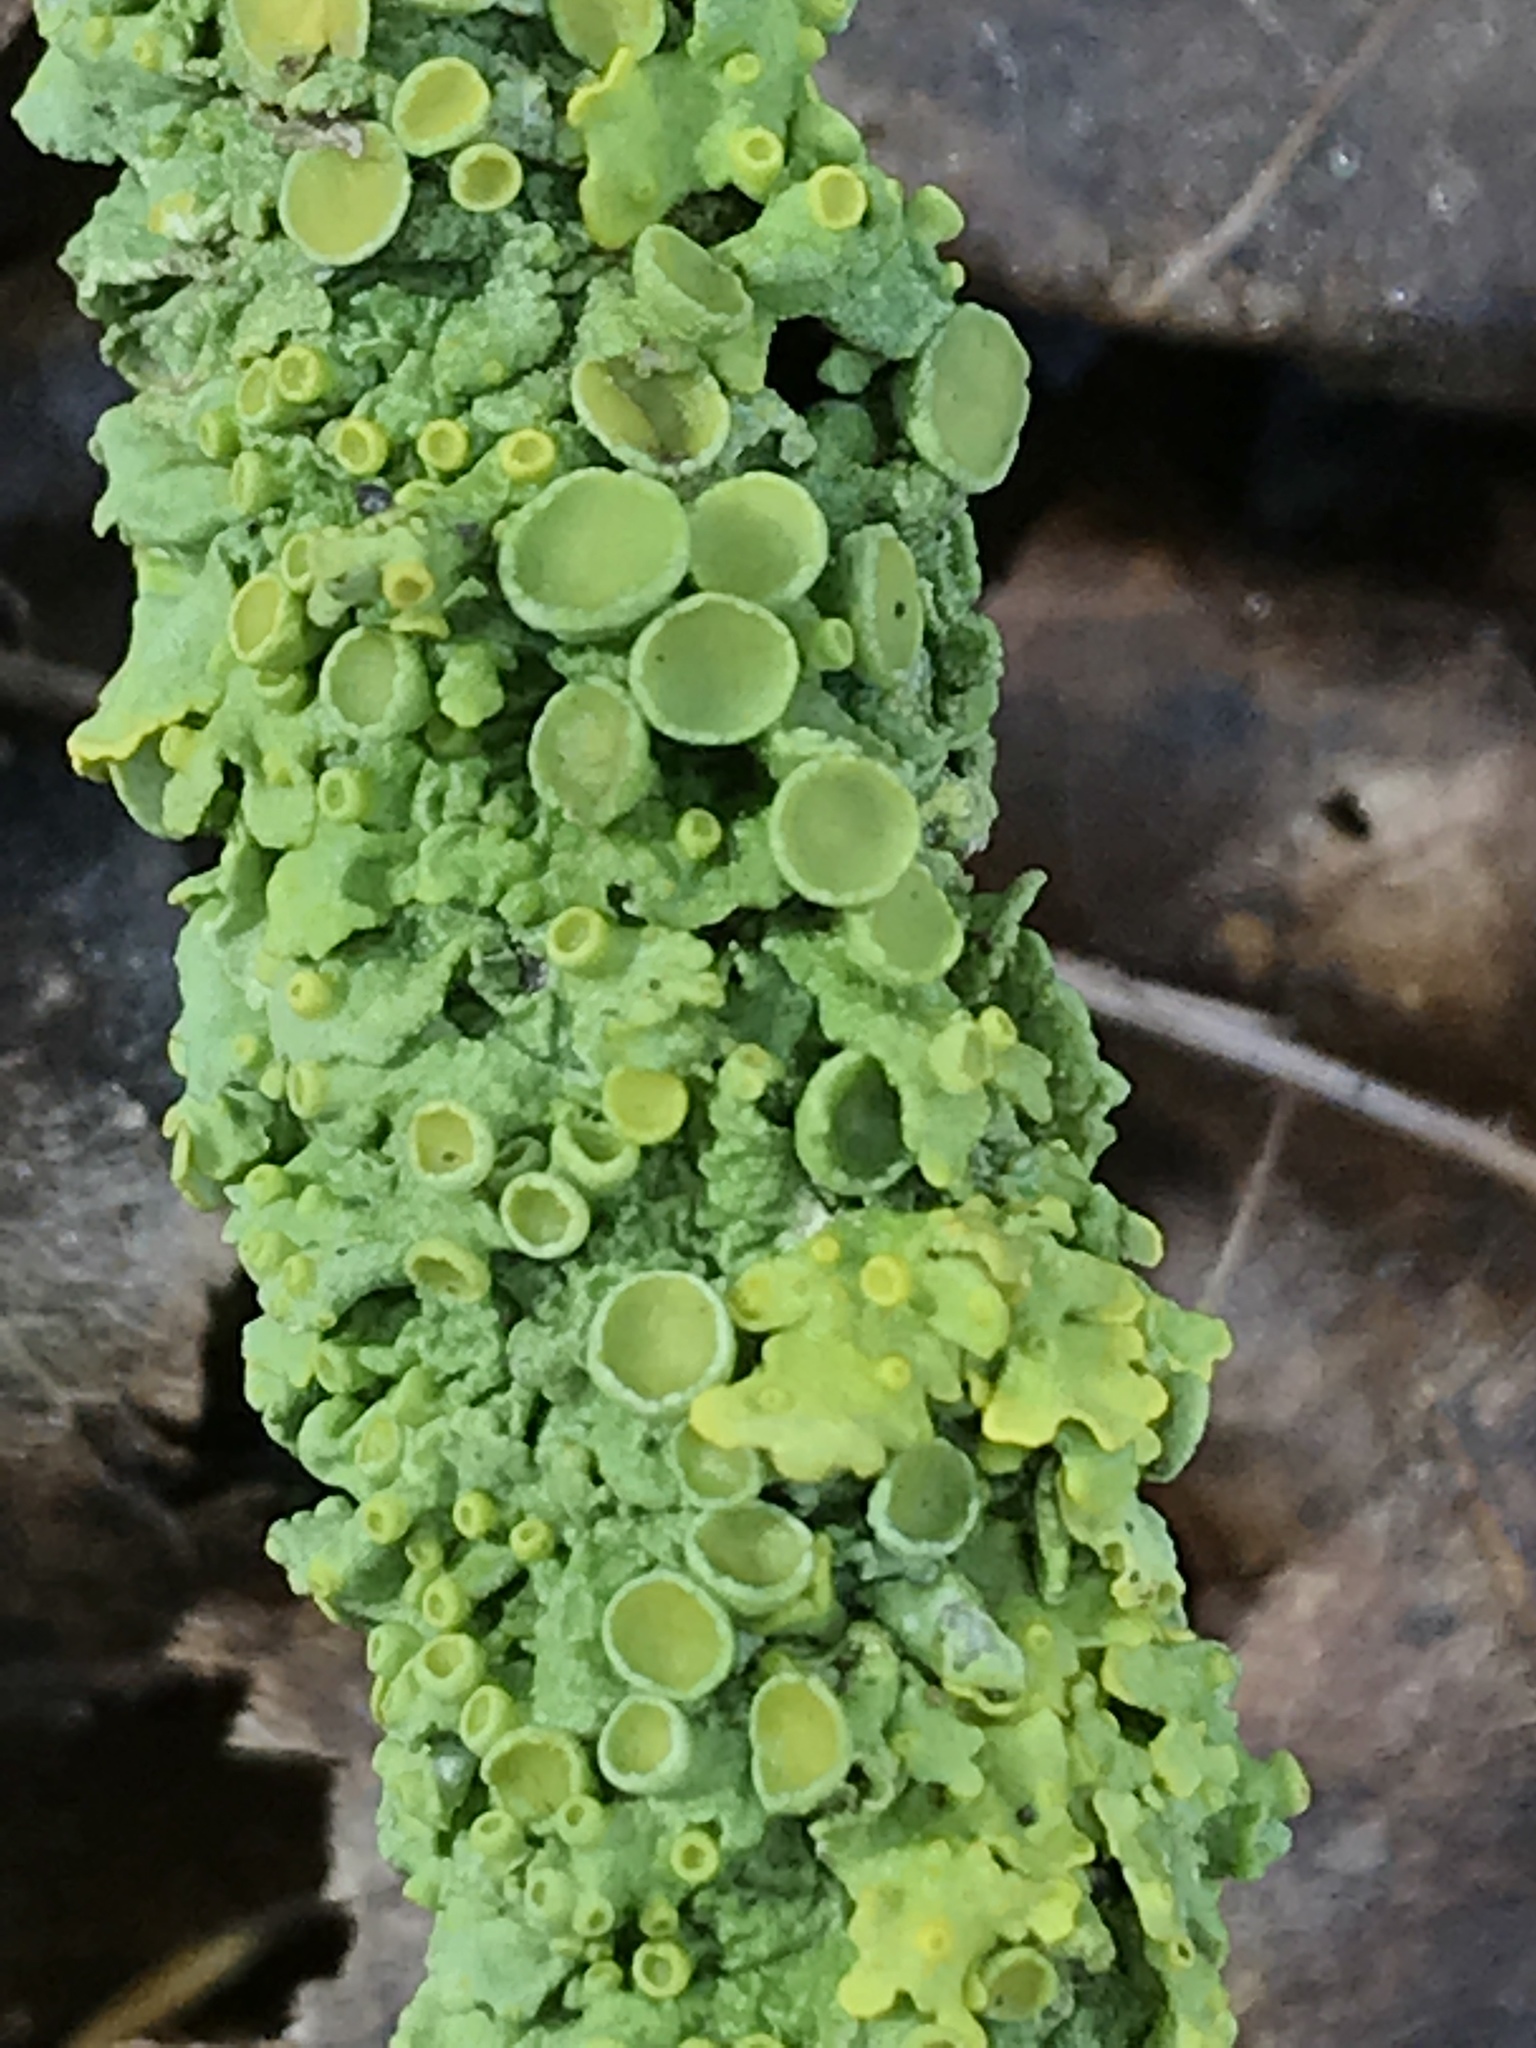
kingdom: Fungi
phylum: Ascomycota
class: Lecanoromycetes
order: Teloschistales
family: Teloschistaceae
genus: Xanthoria
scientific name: Xanthoria parietina
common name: Common orange lichen
